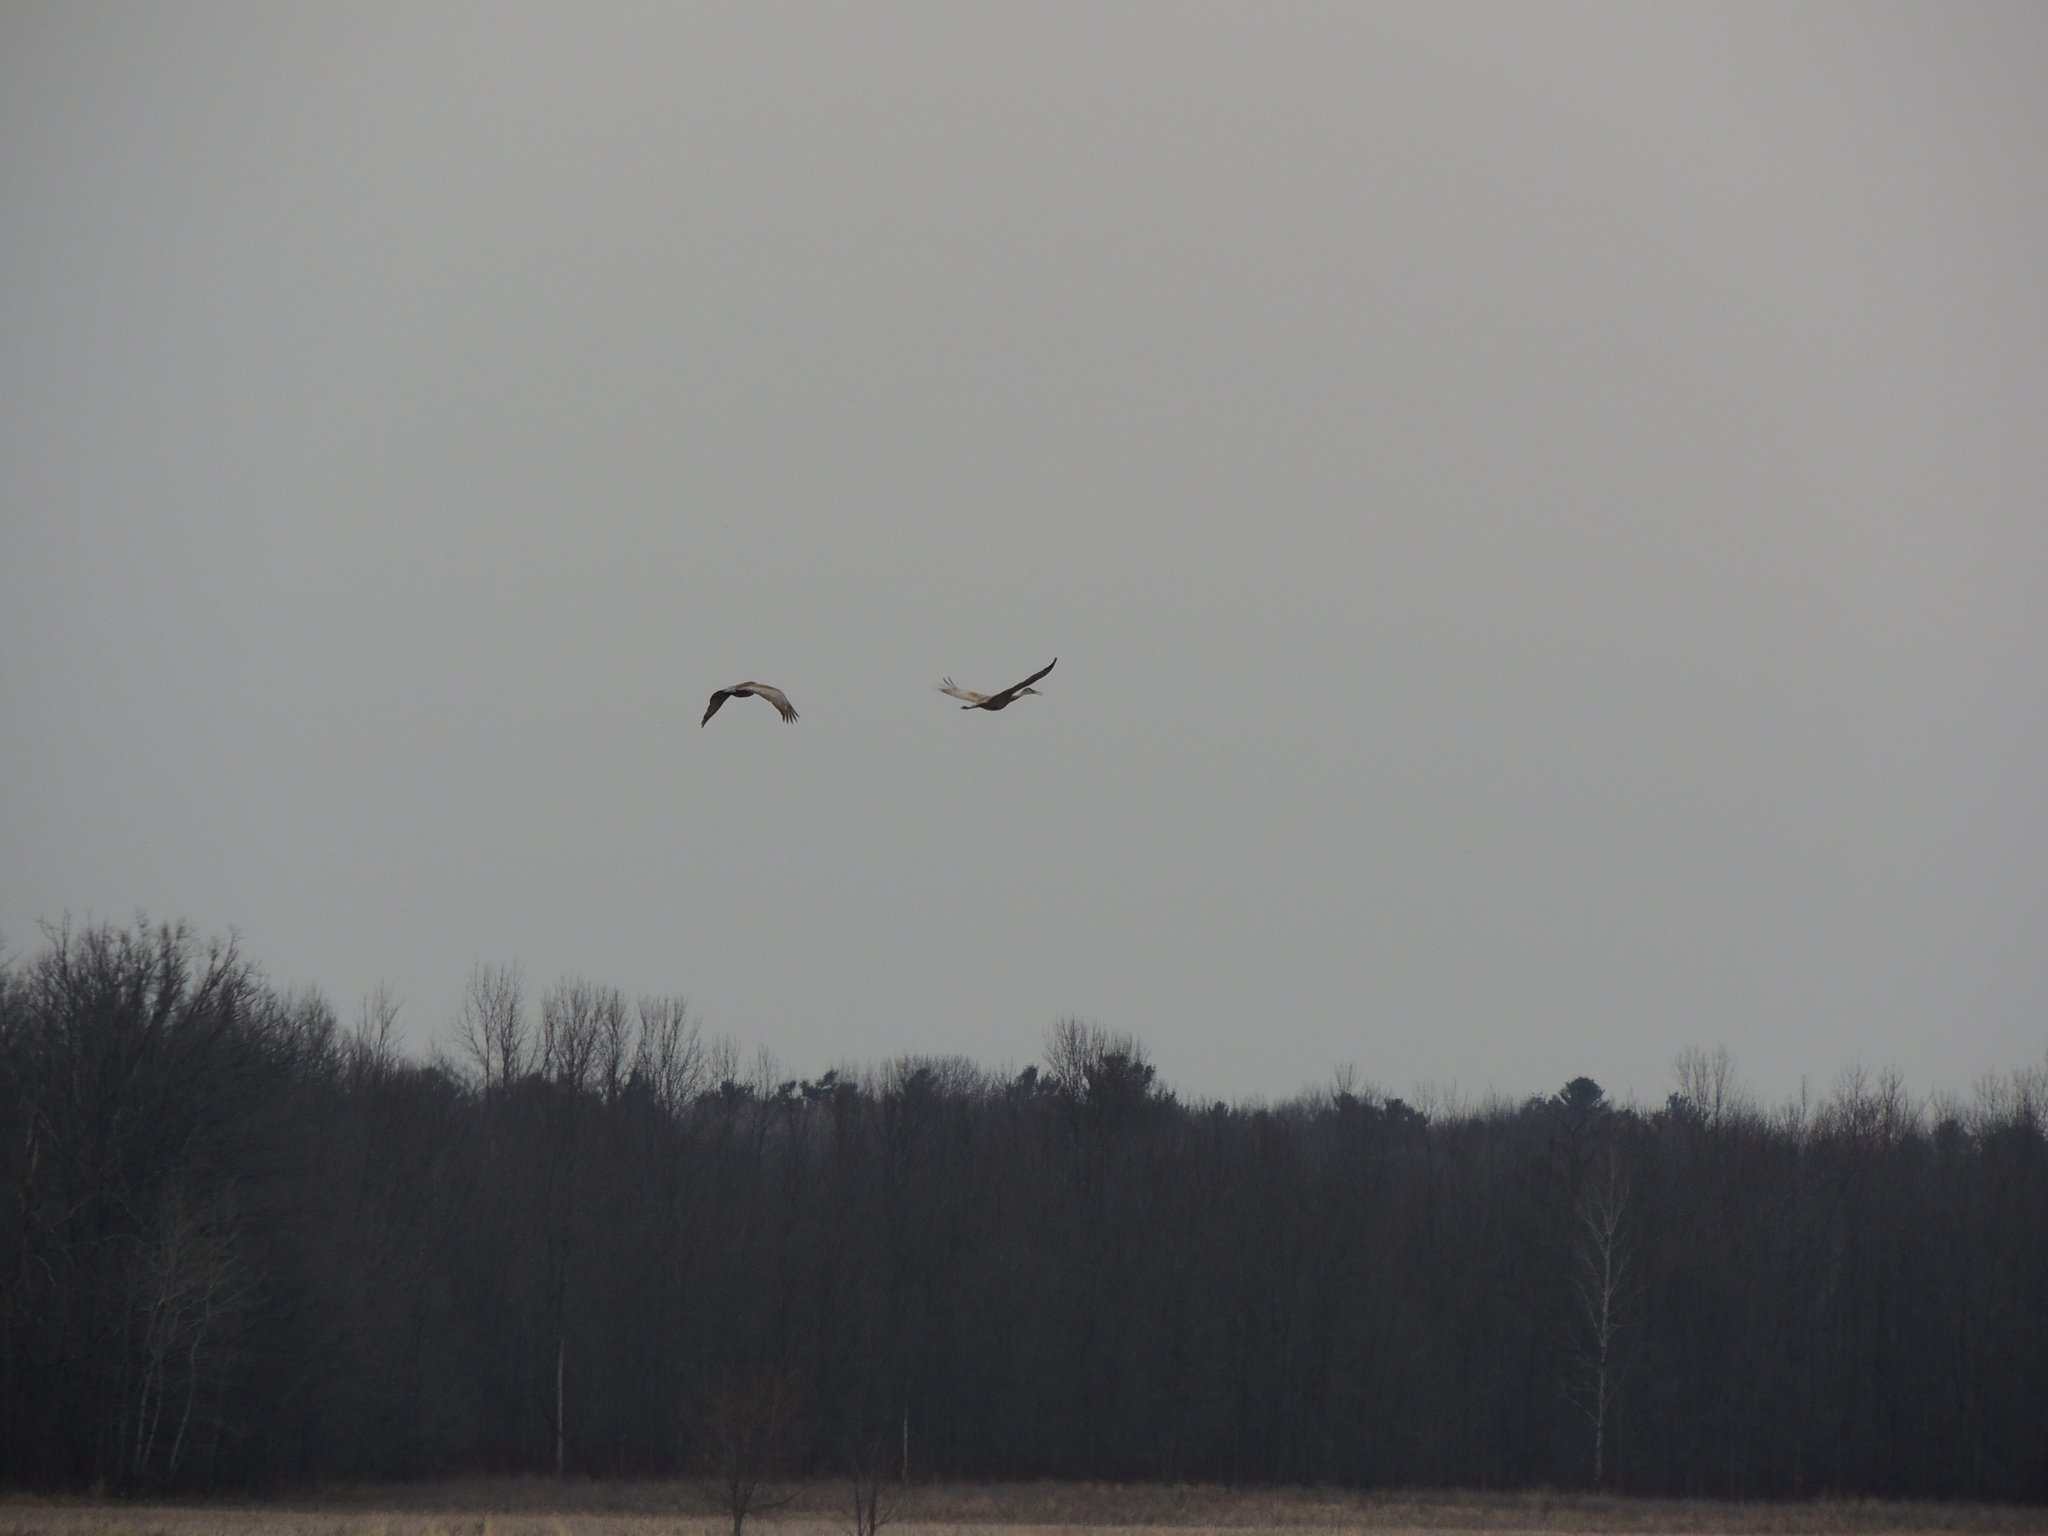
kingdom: Animalia
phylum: Chordata
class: Aves
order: Gruiformes
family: Gruidae
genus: Grus
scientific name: Grus canadensis
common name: Sandhill crane
